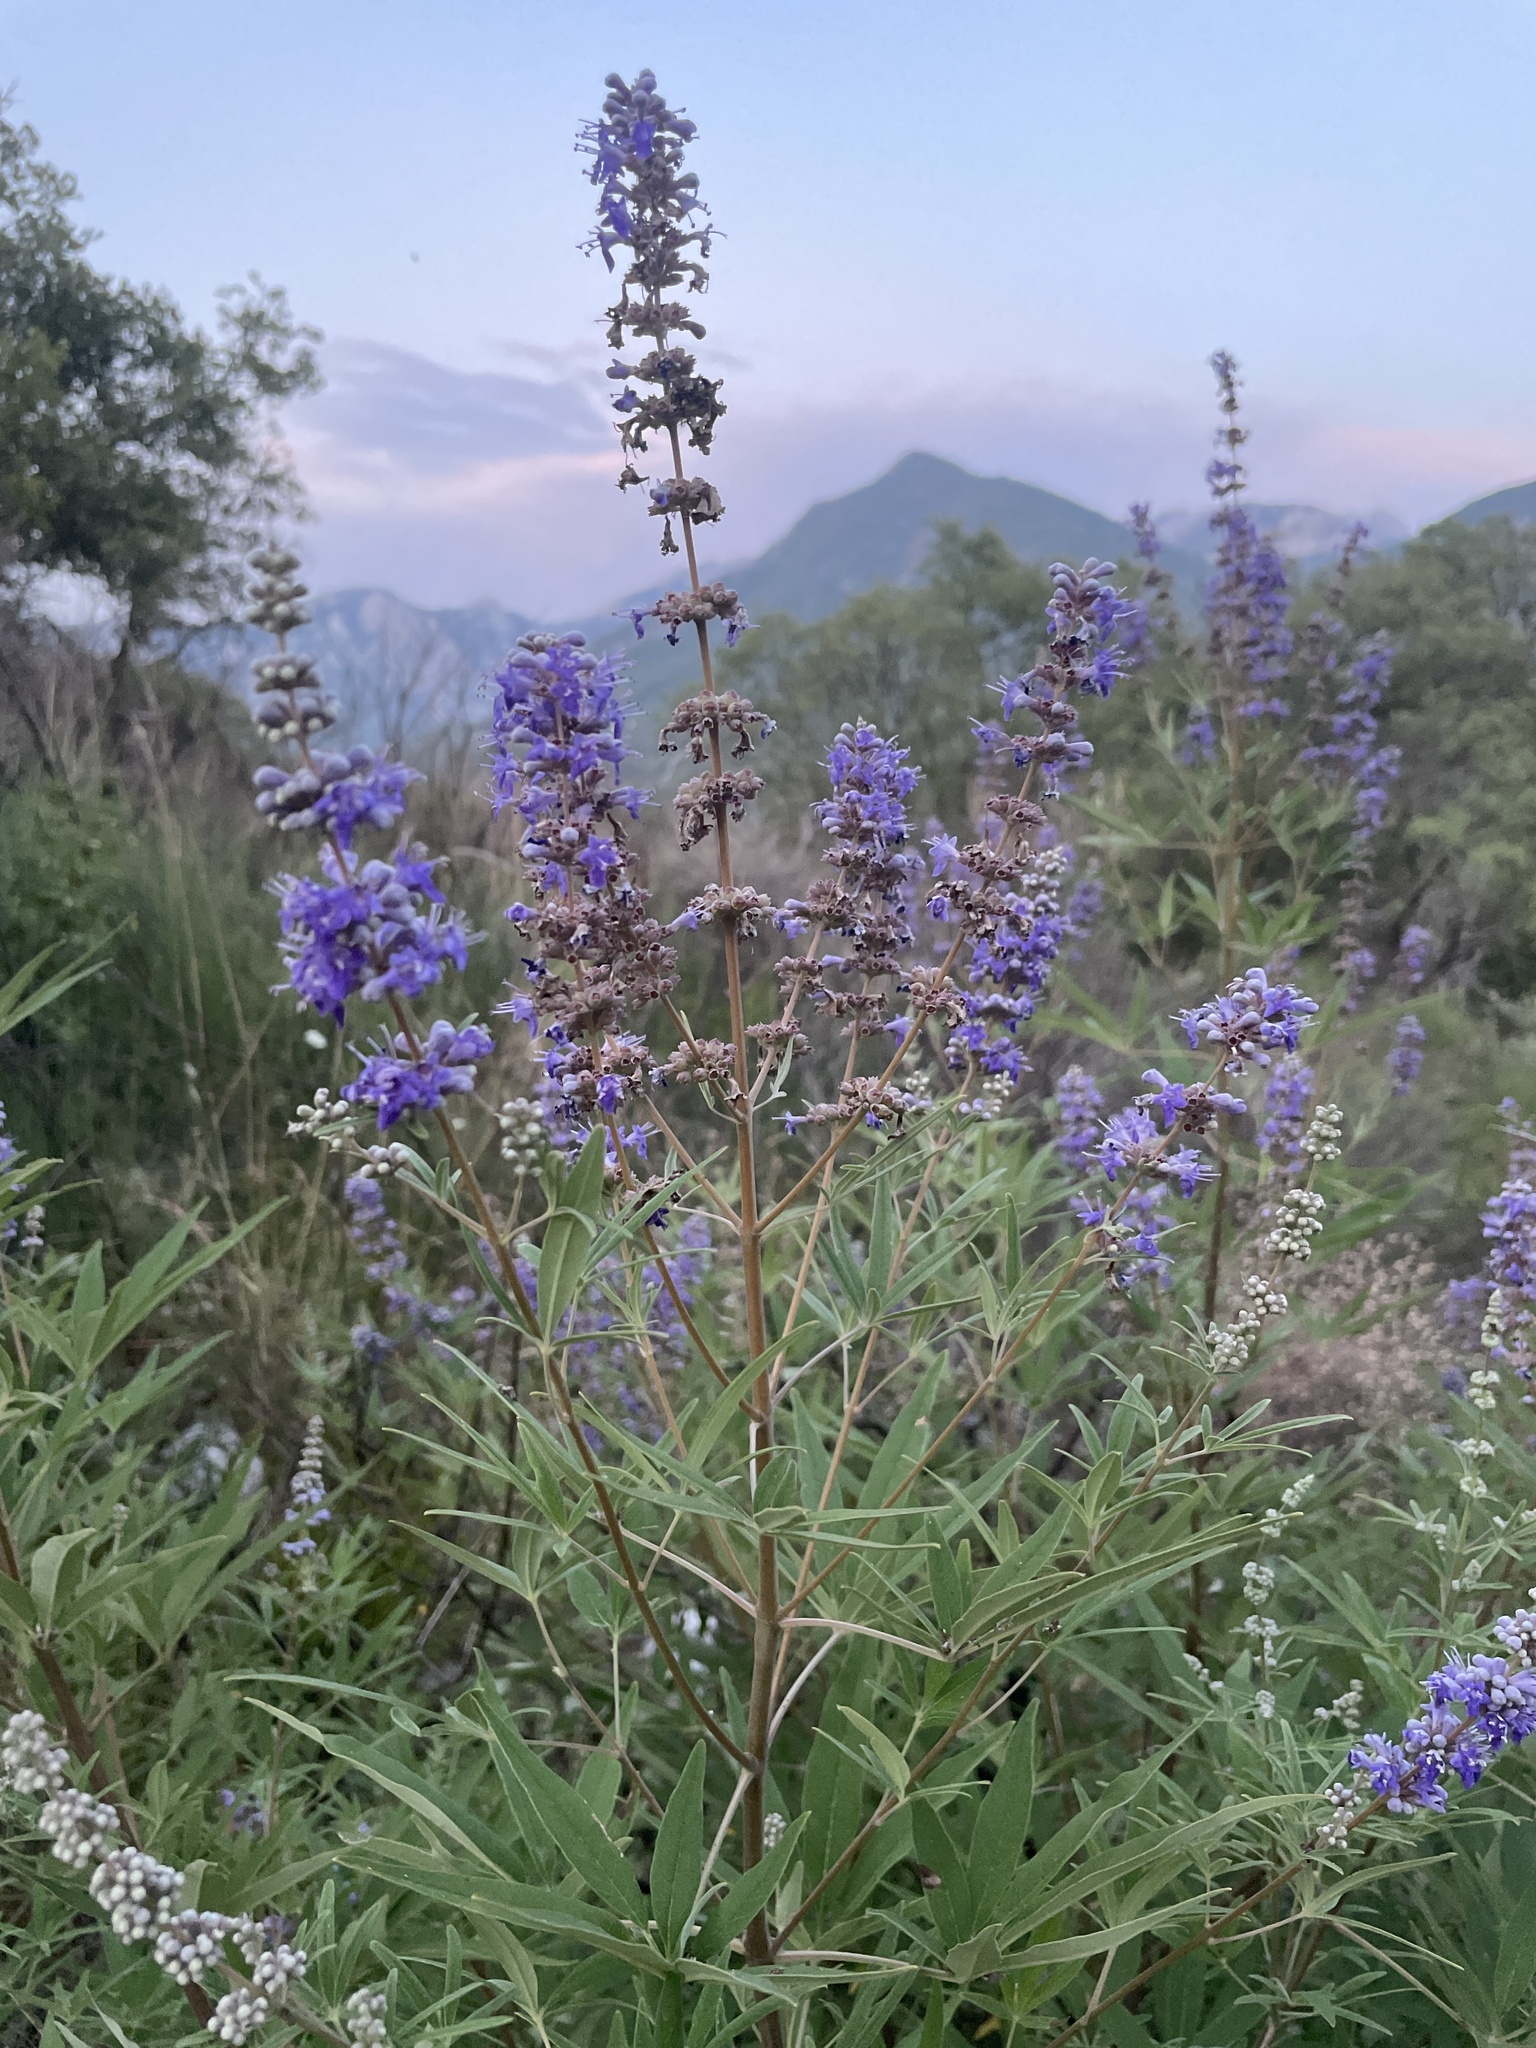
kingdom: Plantae
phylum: Tracheophyta
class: Magnoliopsida
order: Lamiales
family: Lamiaceae
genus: Vitex
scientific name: Vitex agnus-castus
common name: Chasteberry
